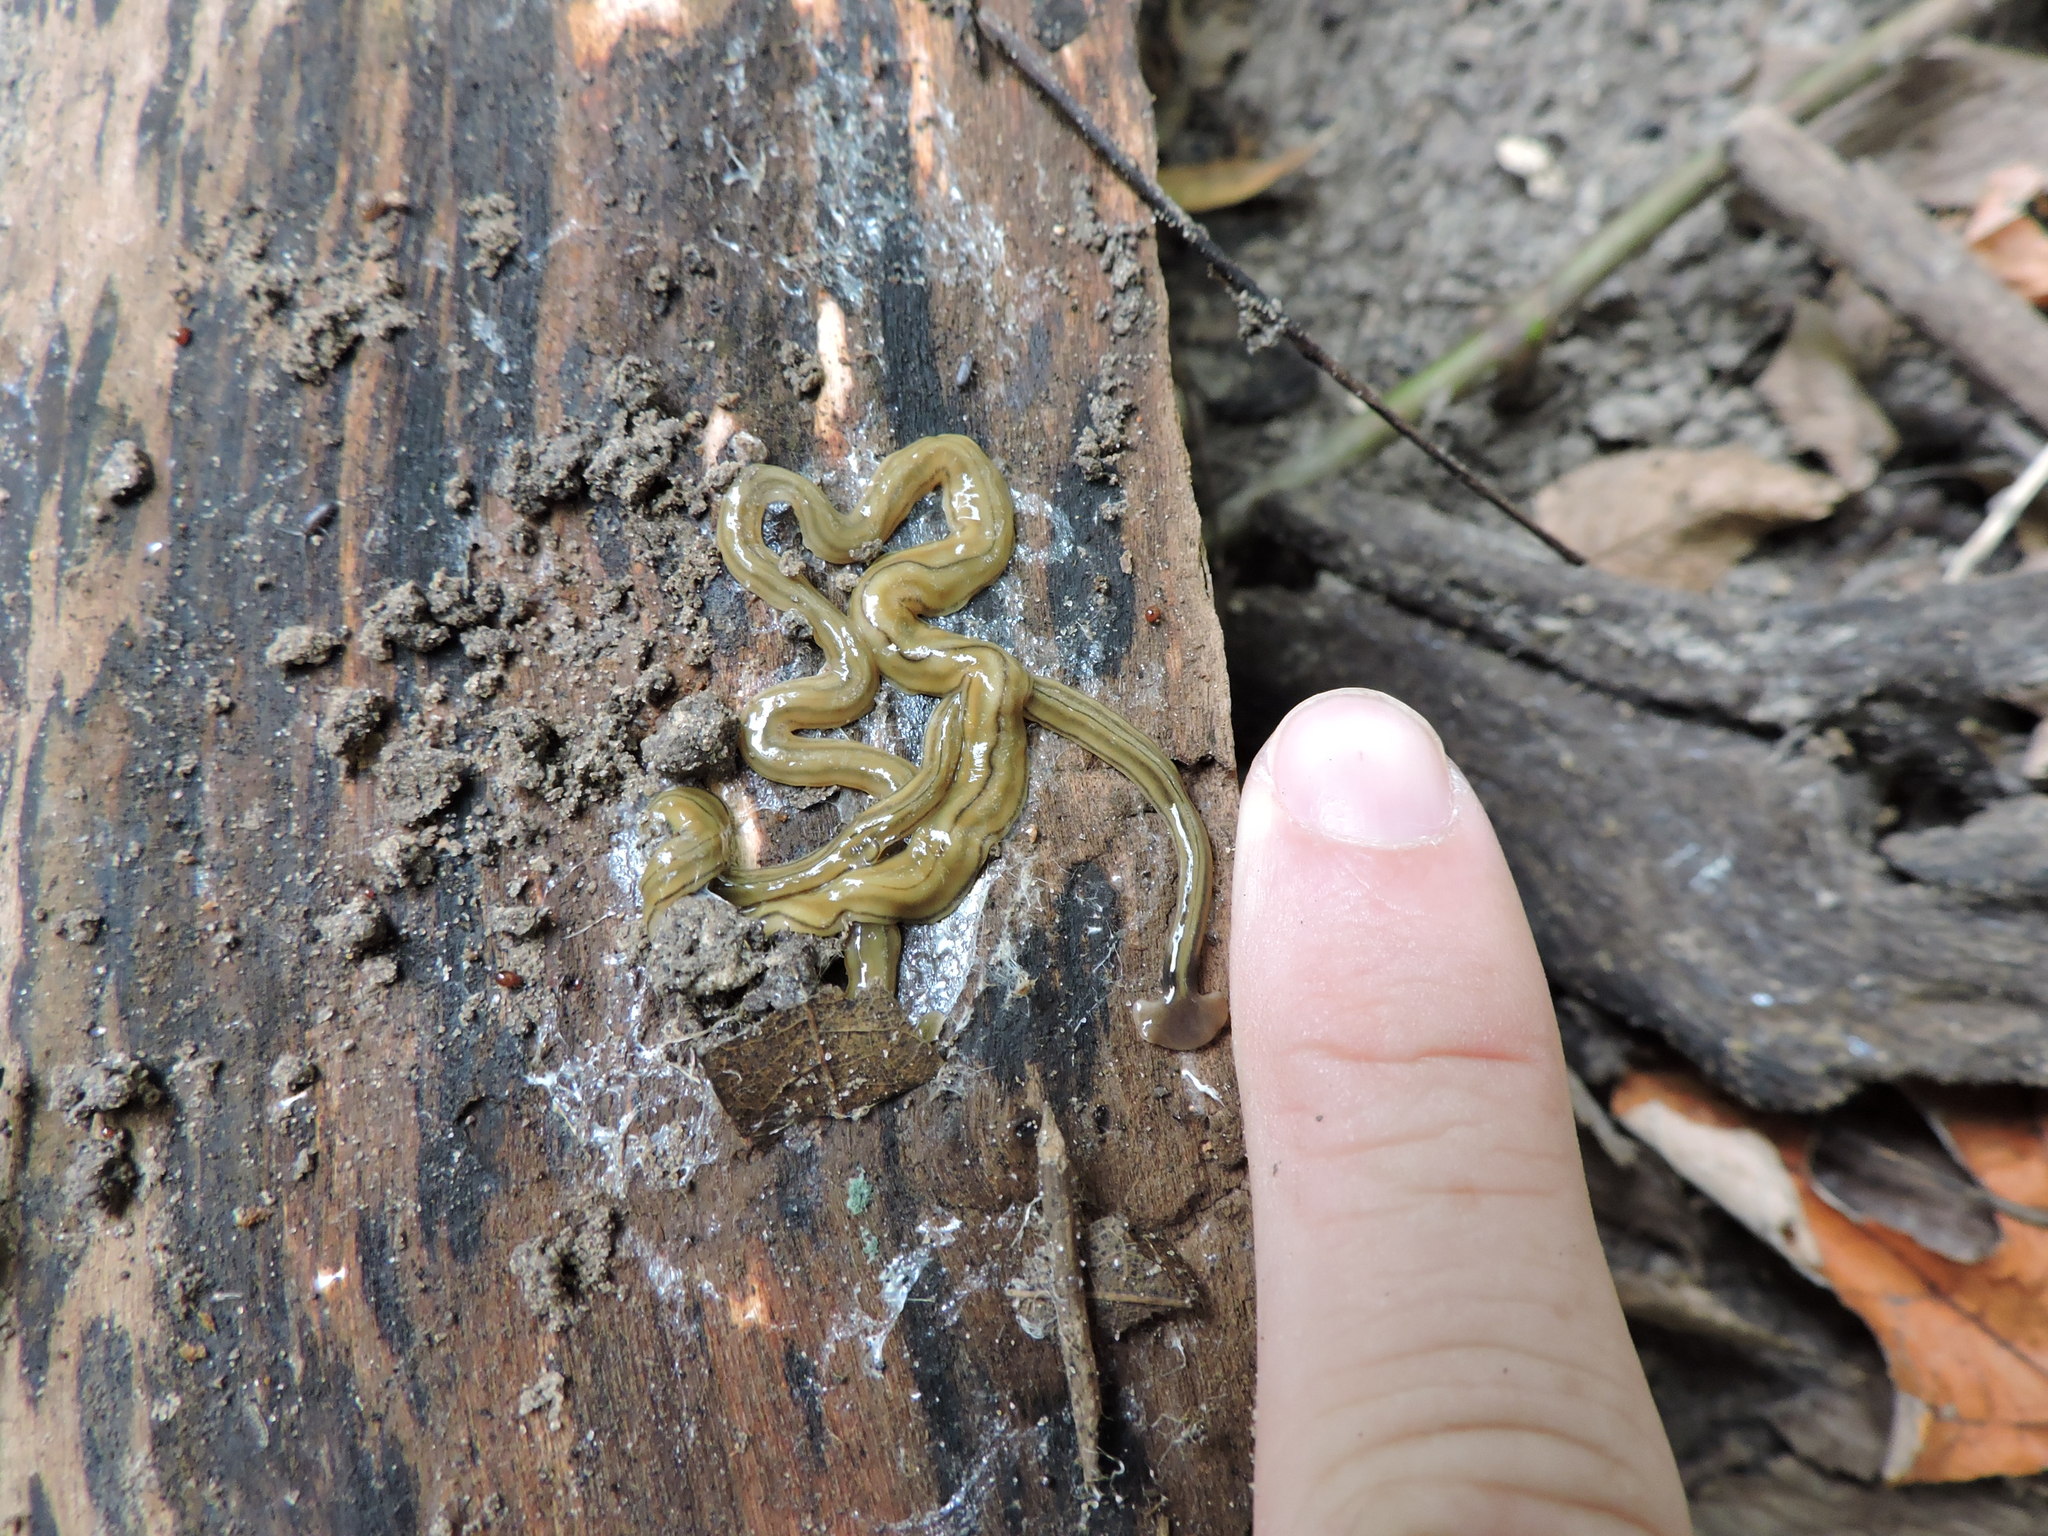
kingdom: Animalia
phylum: Platyhelminthes
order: Tricladida
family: Geoplanidae
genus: Bipalium
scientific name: Bipalium kewense
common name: Hammerhead flatworm
